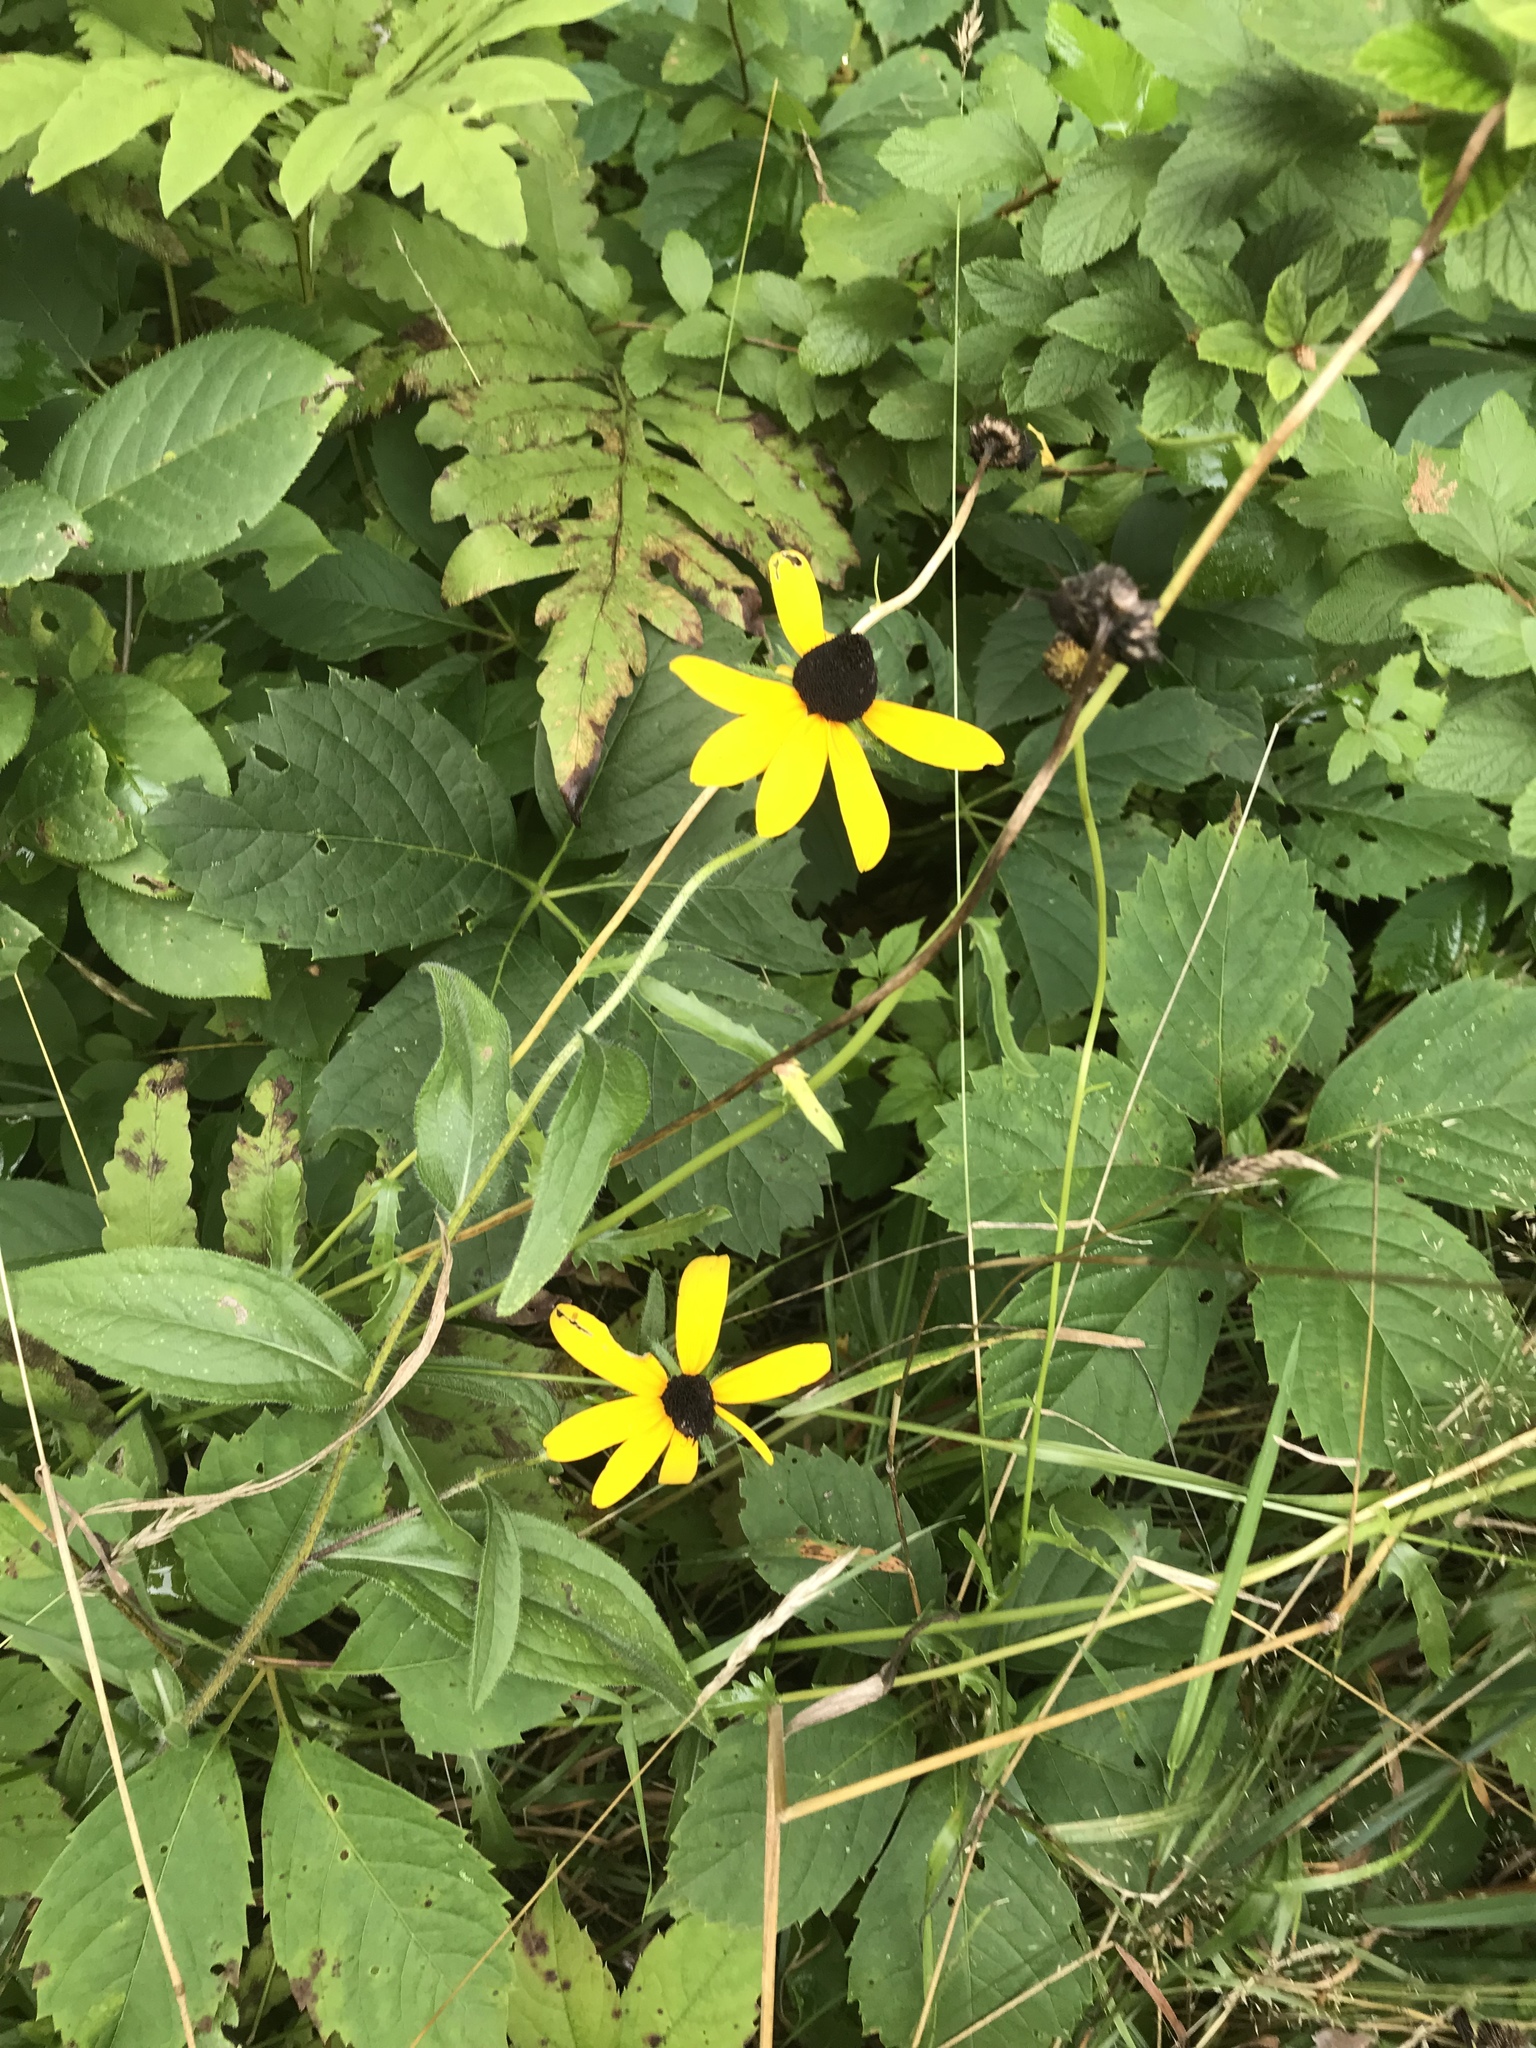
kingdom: Plantae
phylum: Tracheophyta
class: Magnoliopsida
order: Asterales
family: Asteraceae
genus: Rudbeckia
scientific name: Rudbeckia hirta
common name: Black-eyed-susan
